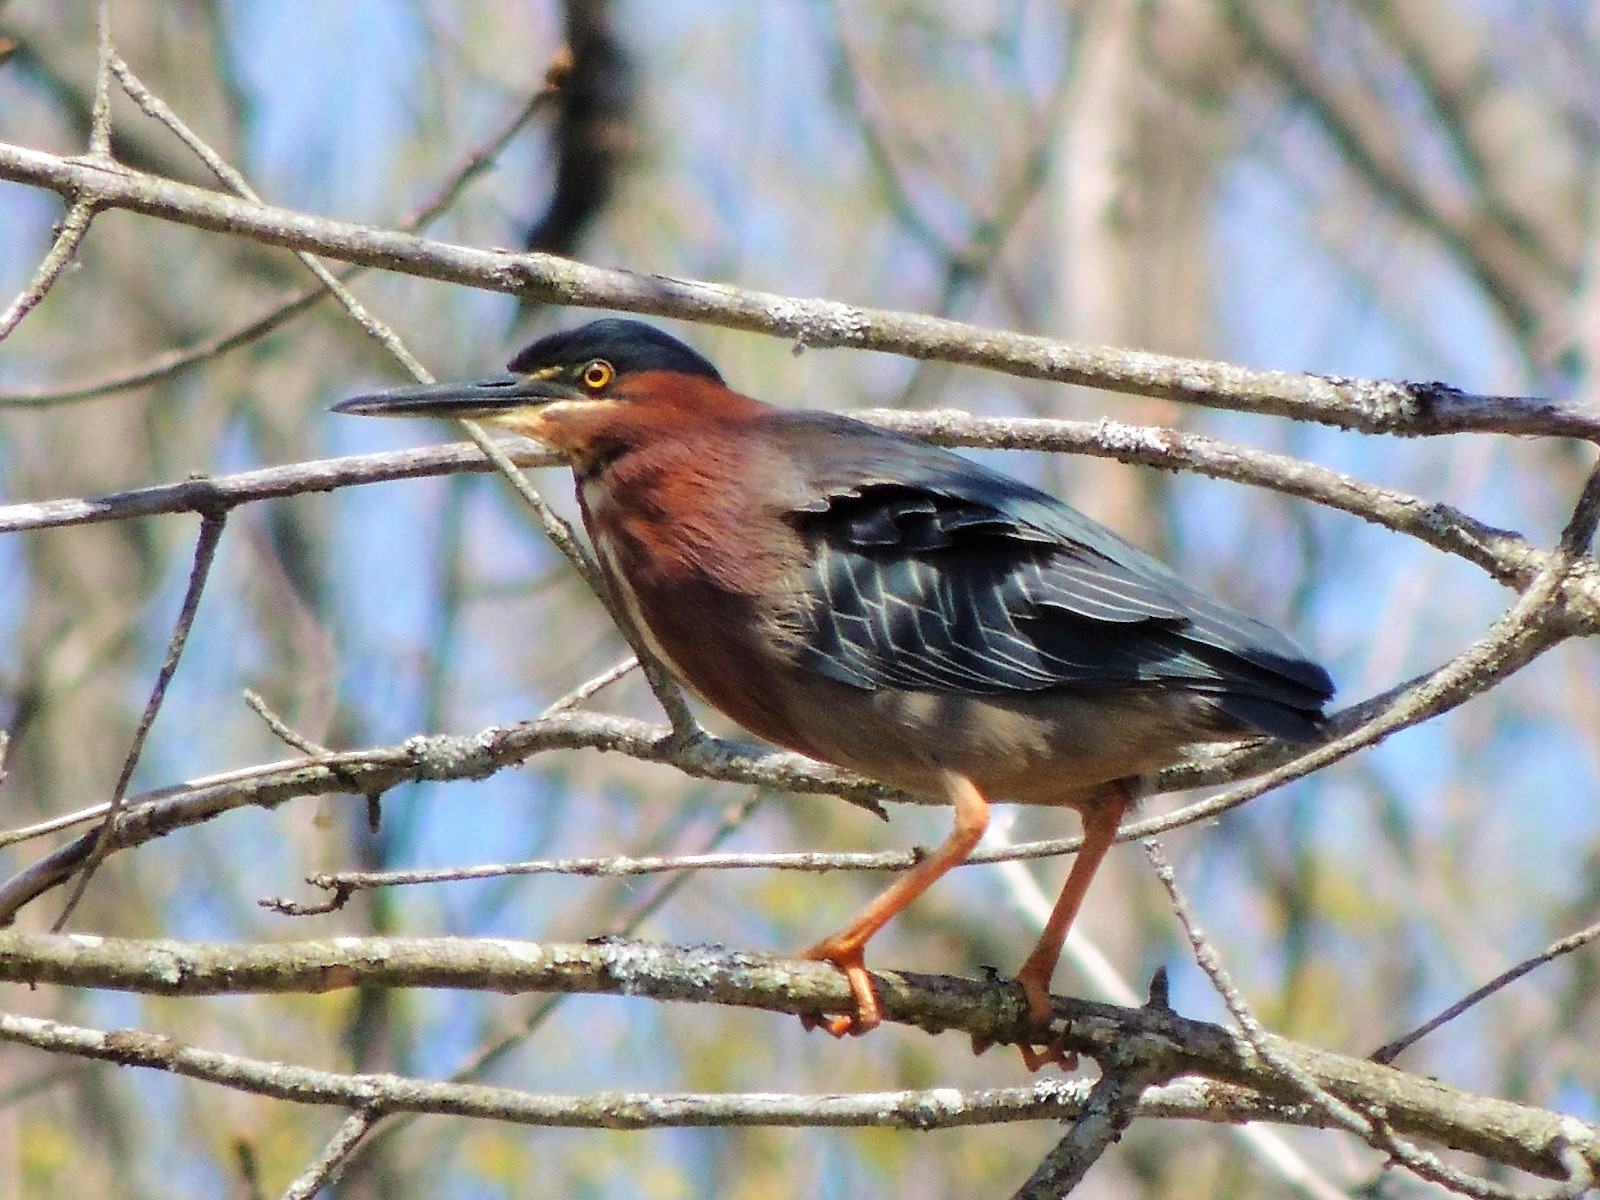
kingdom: Animalia
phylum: Chordata
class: Aves
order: Pelecaniformes
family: Ardeidae
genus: Butorides
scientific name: Butorides virescens
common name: Green heron
